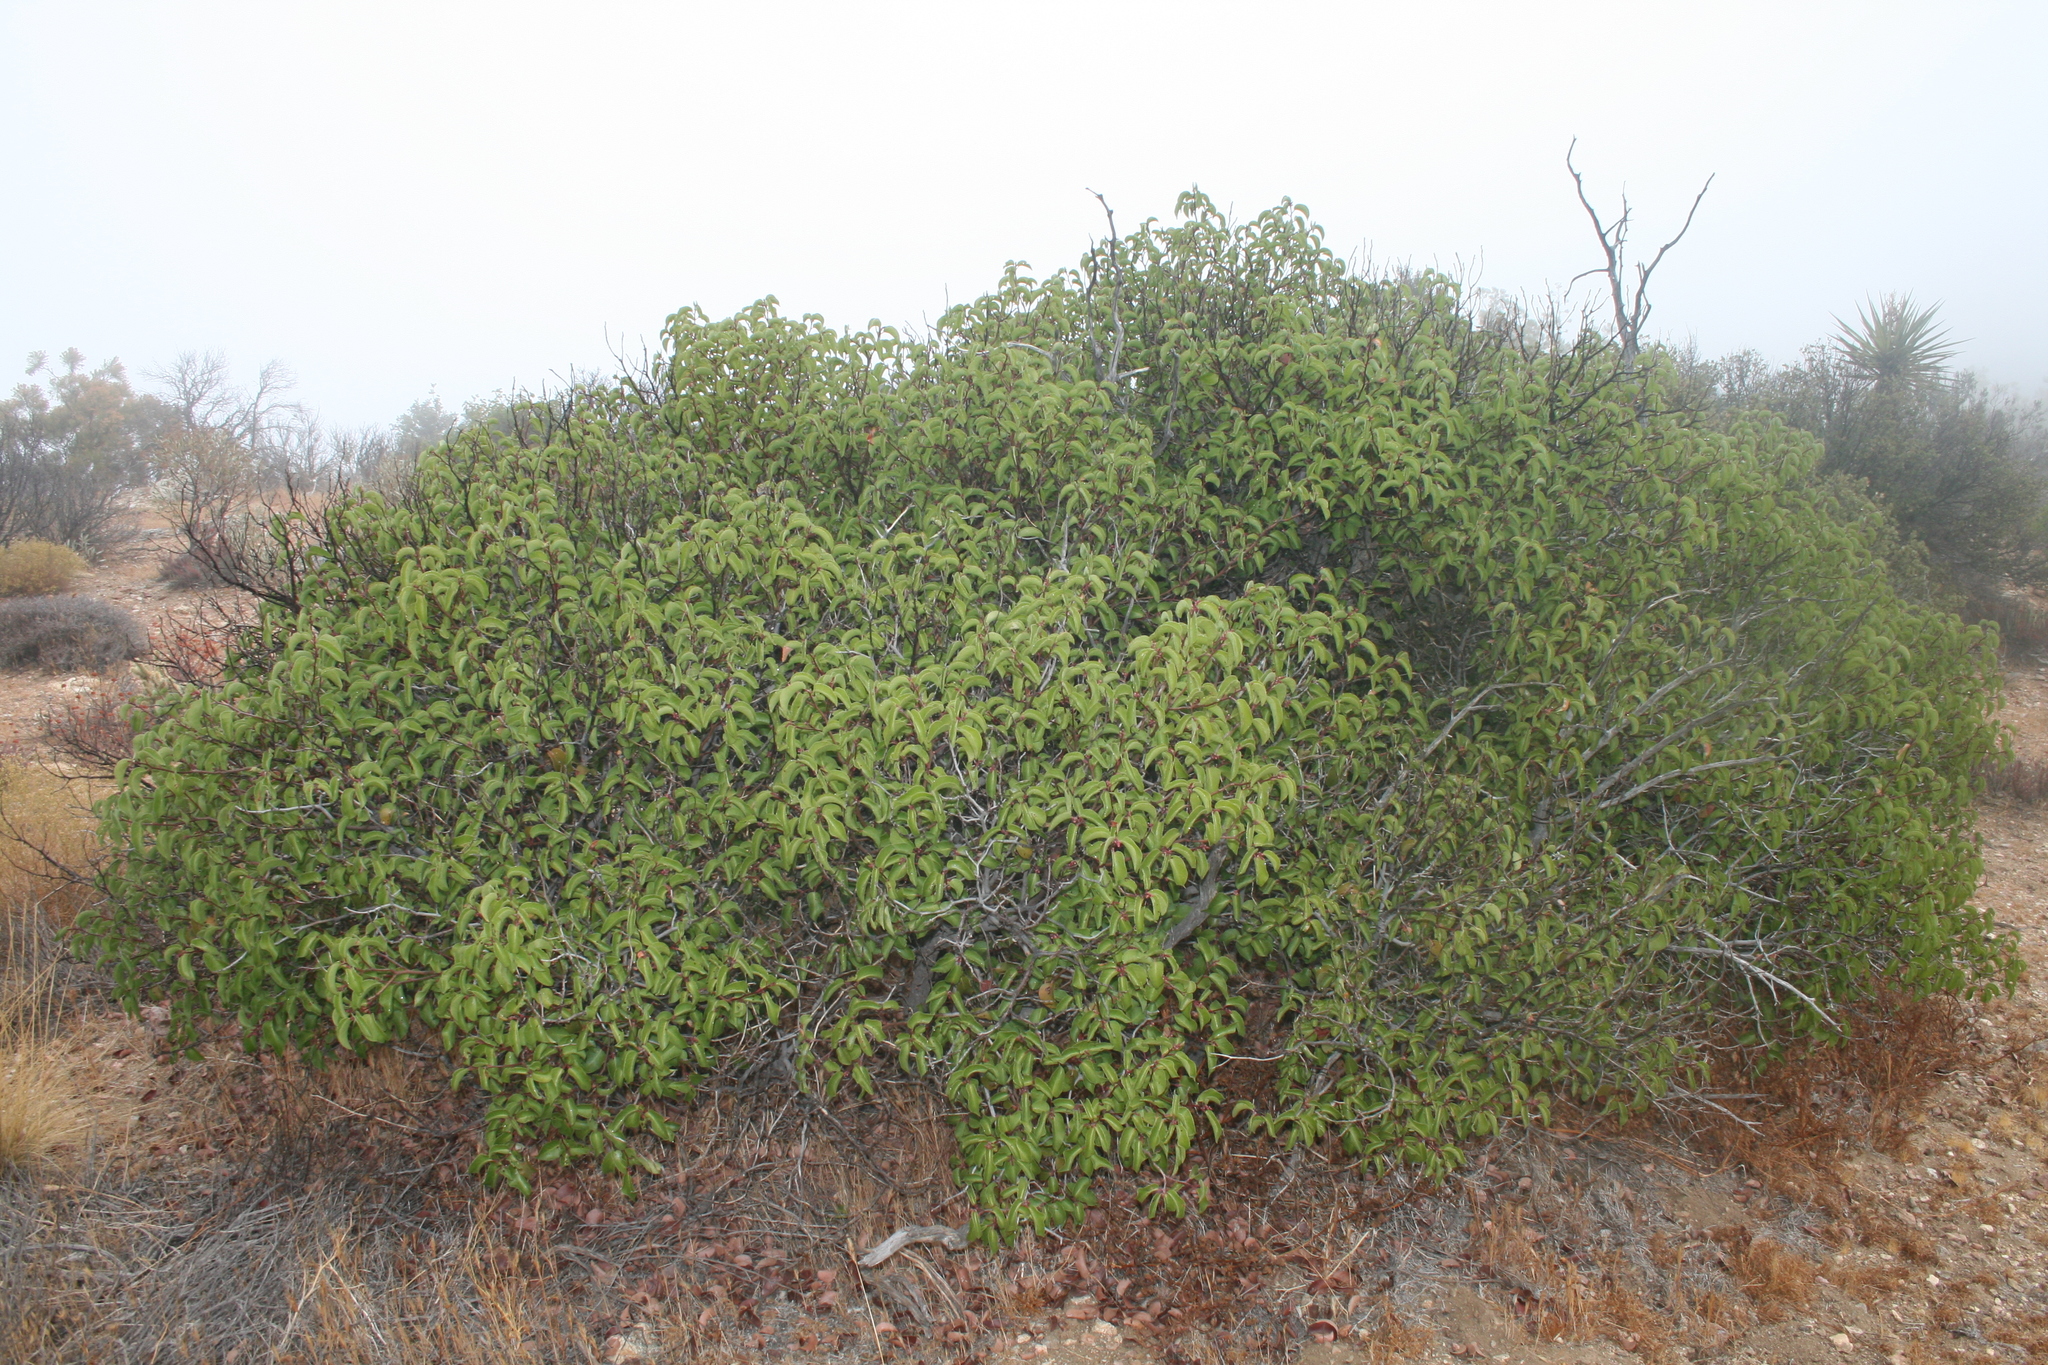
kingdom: Plantae
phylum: Tracheophyta
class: Magnoliopsida
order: Sapindales
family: Anacardiaceae
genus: Rhus
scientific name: Rhus ovata
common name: Sugar sumac
